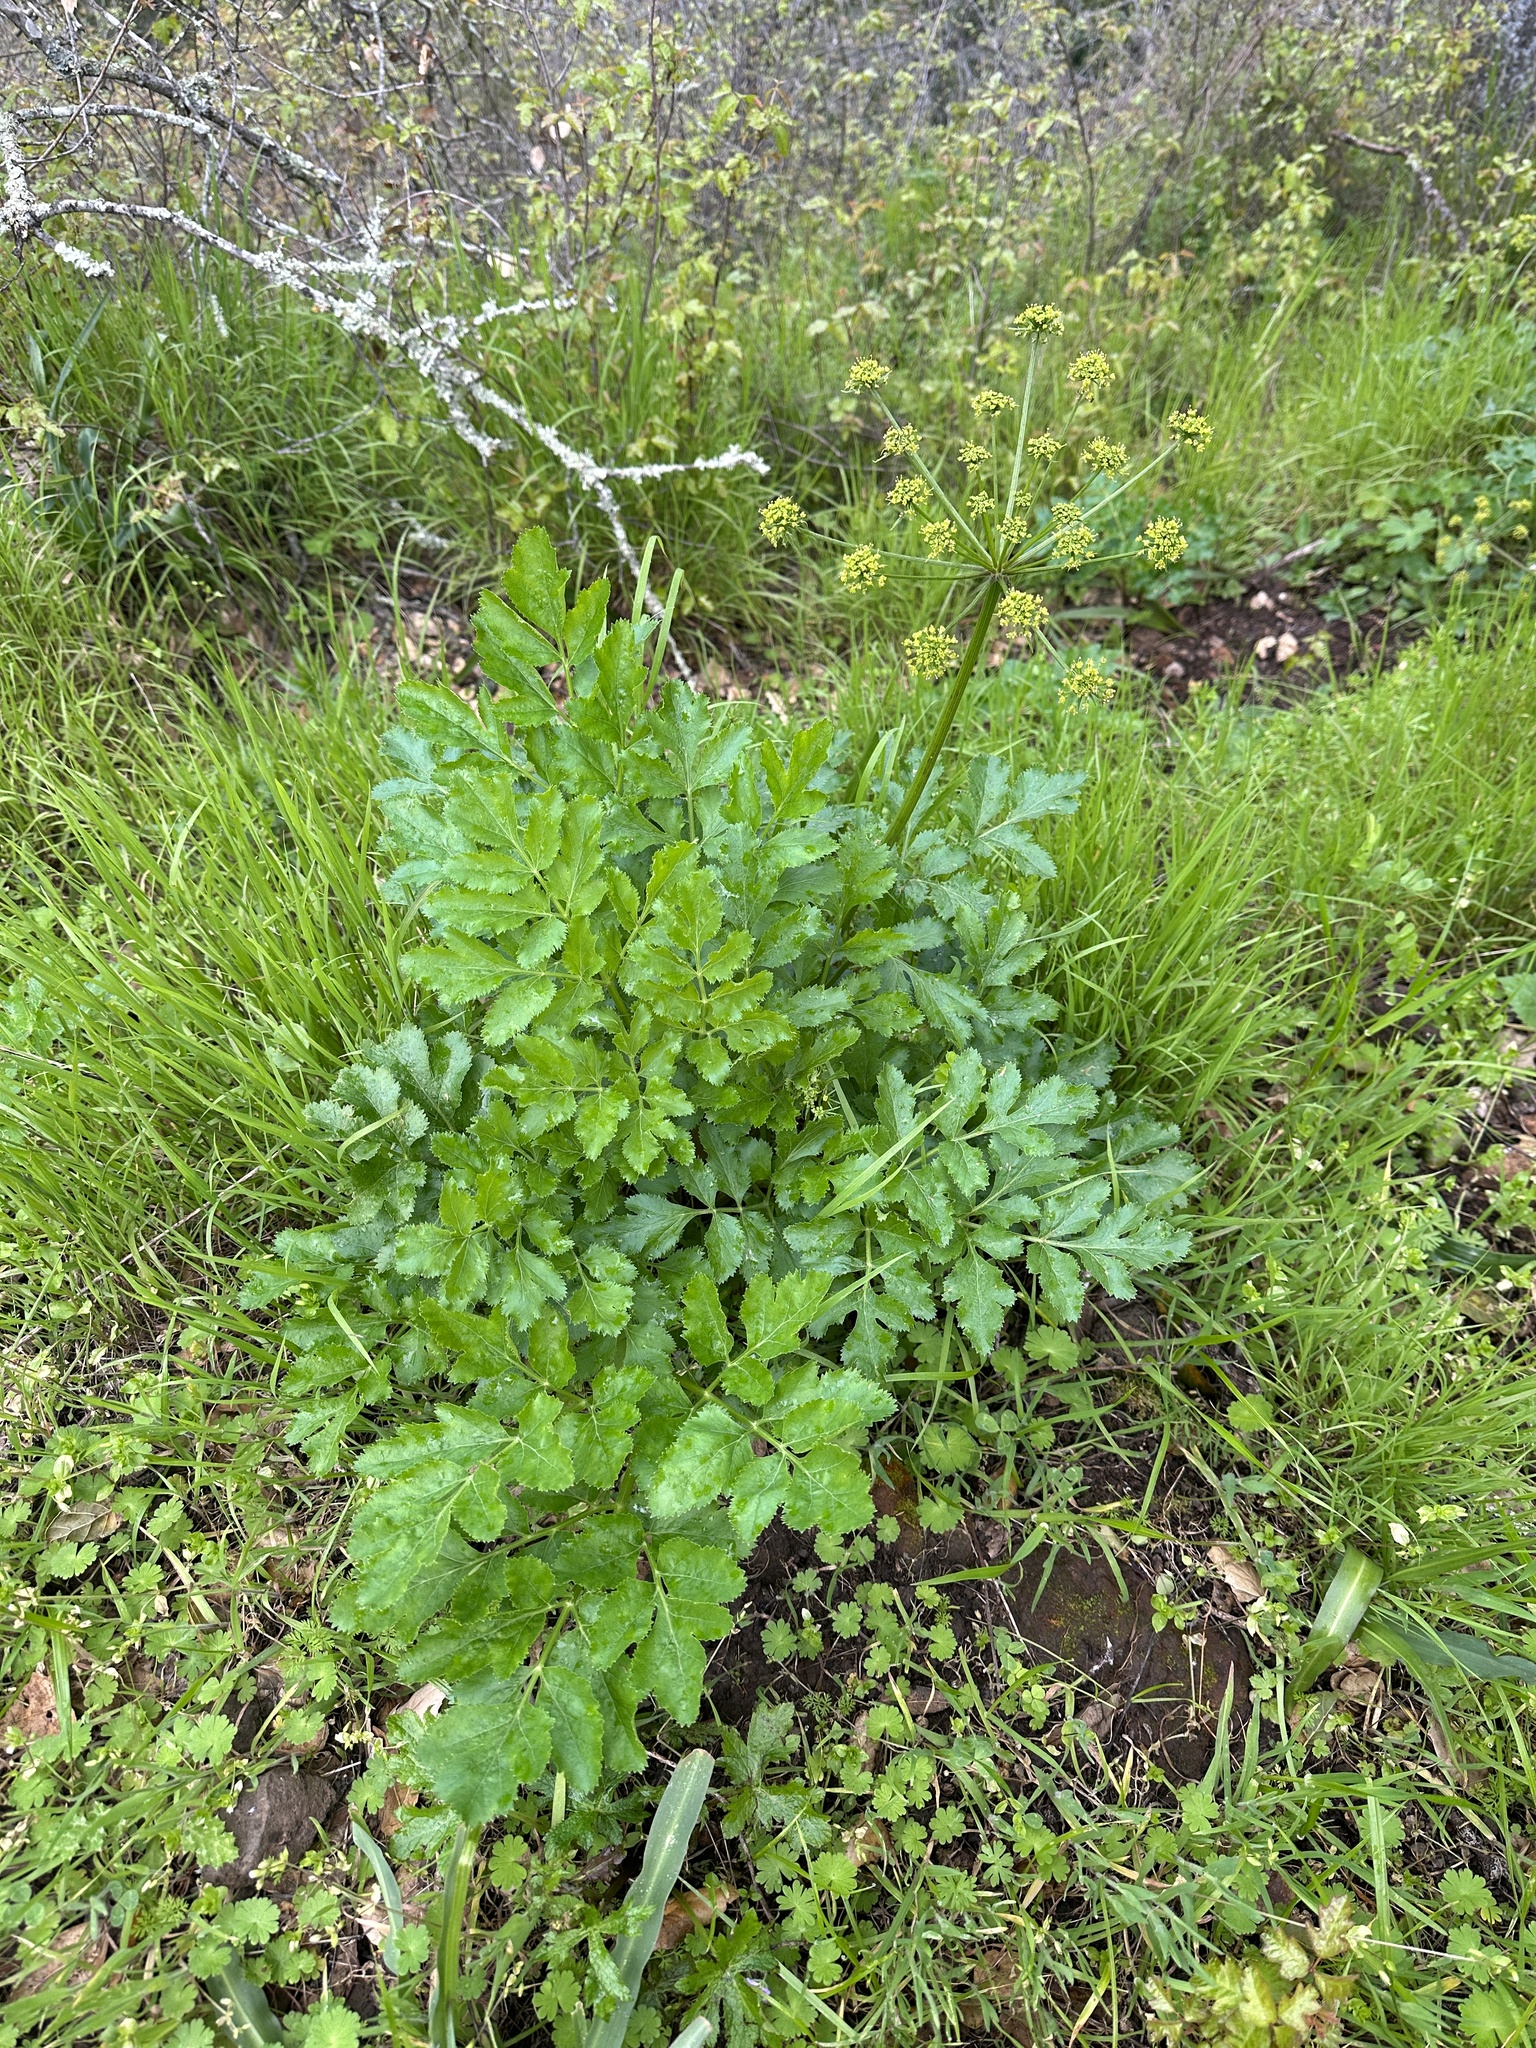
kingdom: Plantae
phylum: Tracheophyta
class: Magnoliopsida
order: Apiales
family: Apiaceae
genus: Tauschia
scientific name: Tauschia hartwegii
